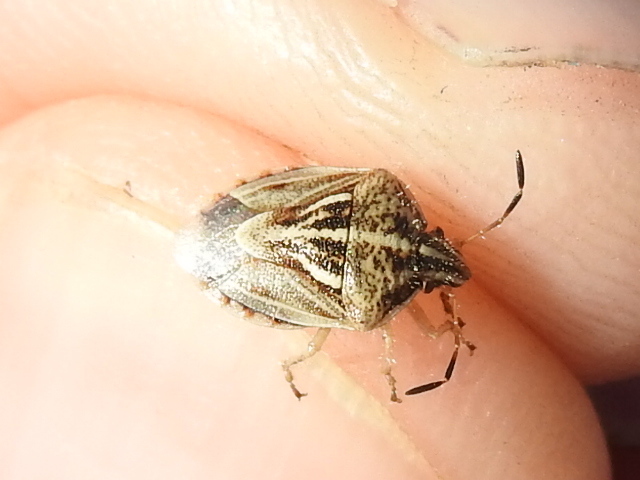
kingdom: Animalia
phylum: Arthropoda
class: Insecta
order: Hemiptera
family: Pentatomidae
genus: Trichopepla
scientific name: Trichopepla semivittata
